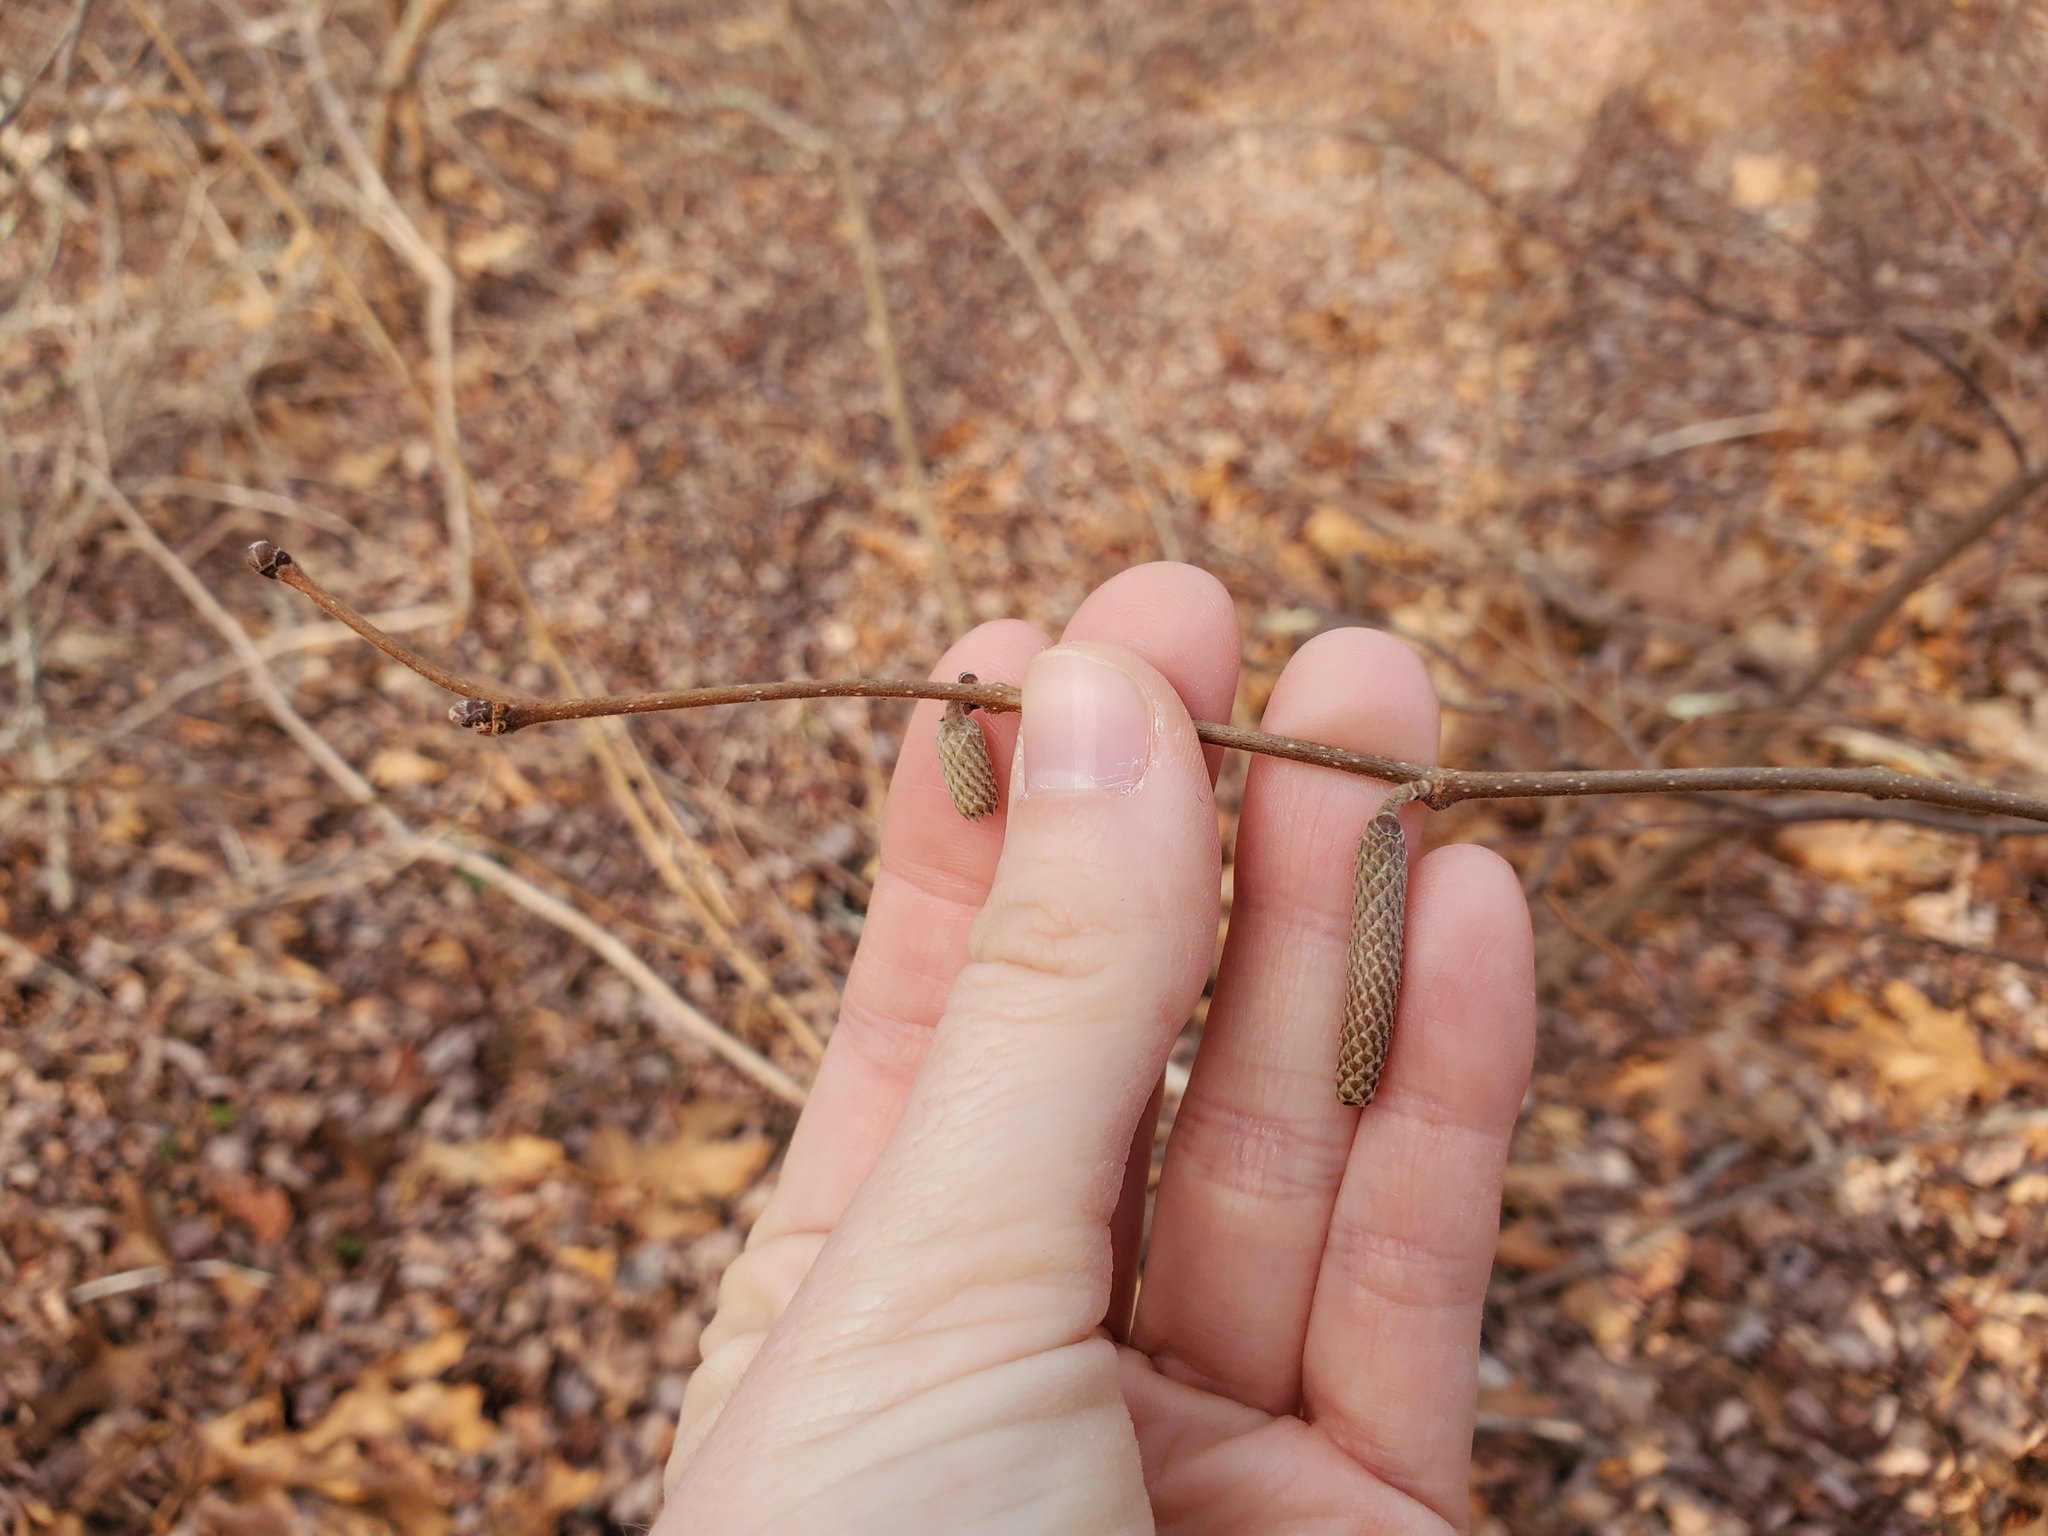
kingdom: Plantae
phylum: Tracheophyta
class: Magnoliopsida
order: Fagales
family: Betulaceae
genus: Corylus
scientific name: Corylus cornuta
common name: Beaked hazel
